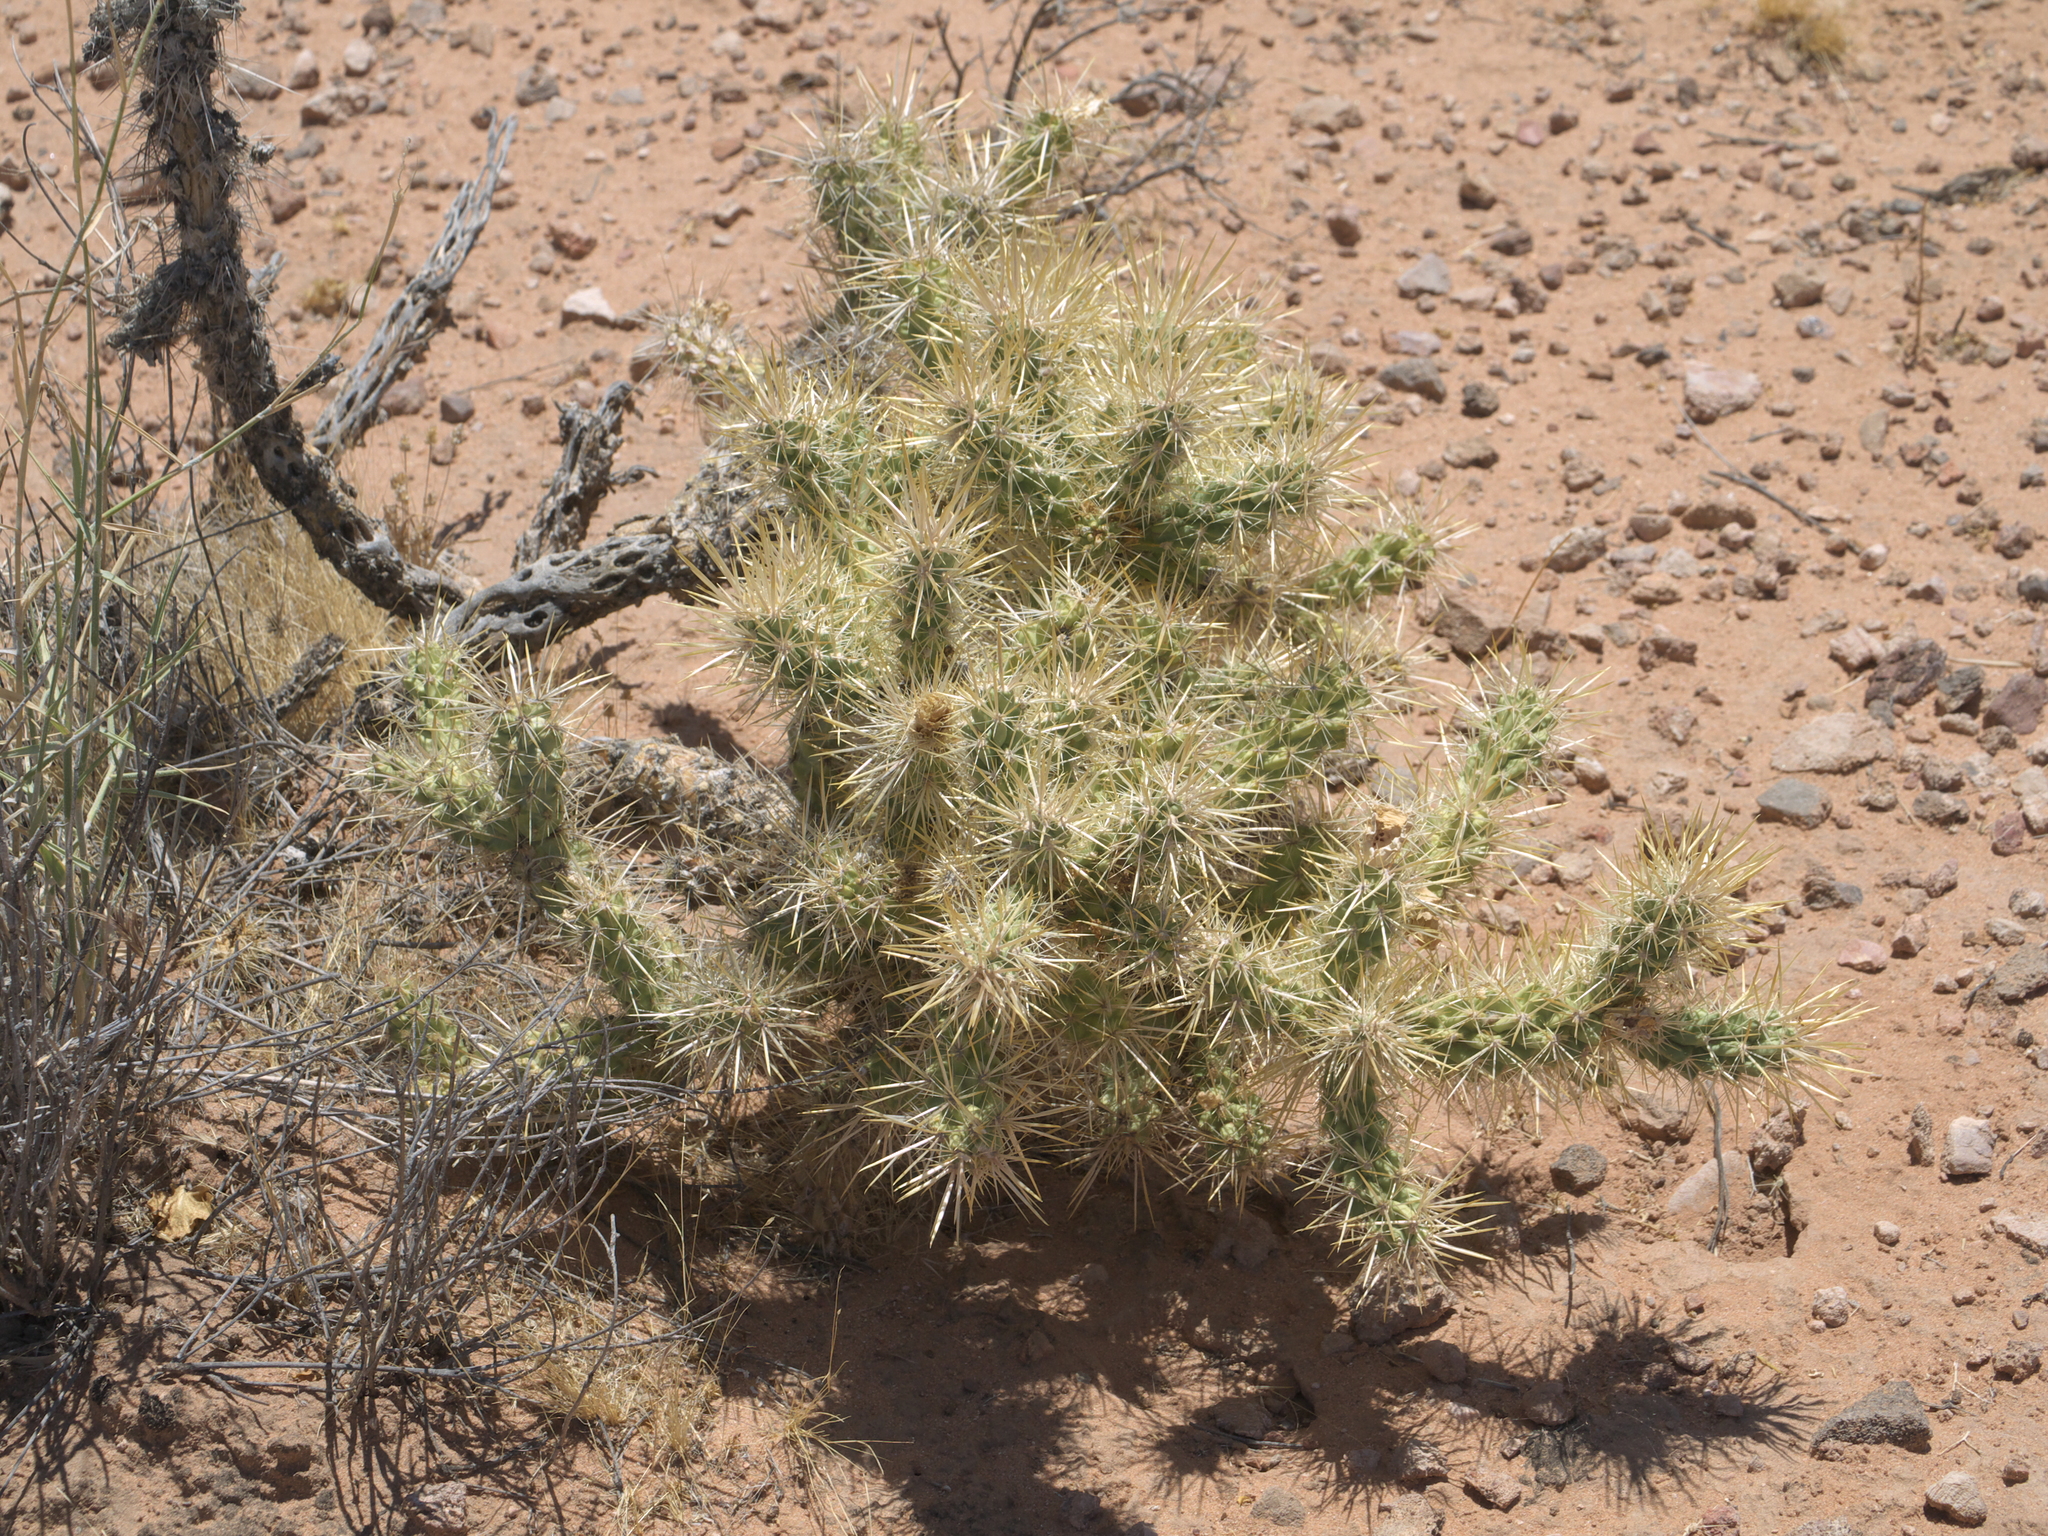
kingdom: Plantae
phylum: Tracheophyta
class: Magnoliopsida
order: Caryophyllales
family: Cactaceae
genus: Cylindropuntia
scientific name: Cylindropuntia echinocarpa
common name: Ground cholla
